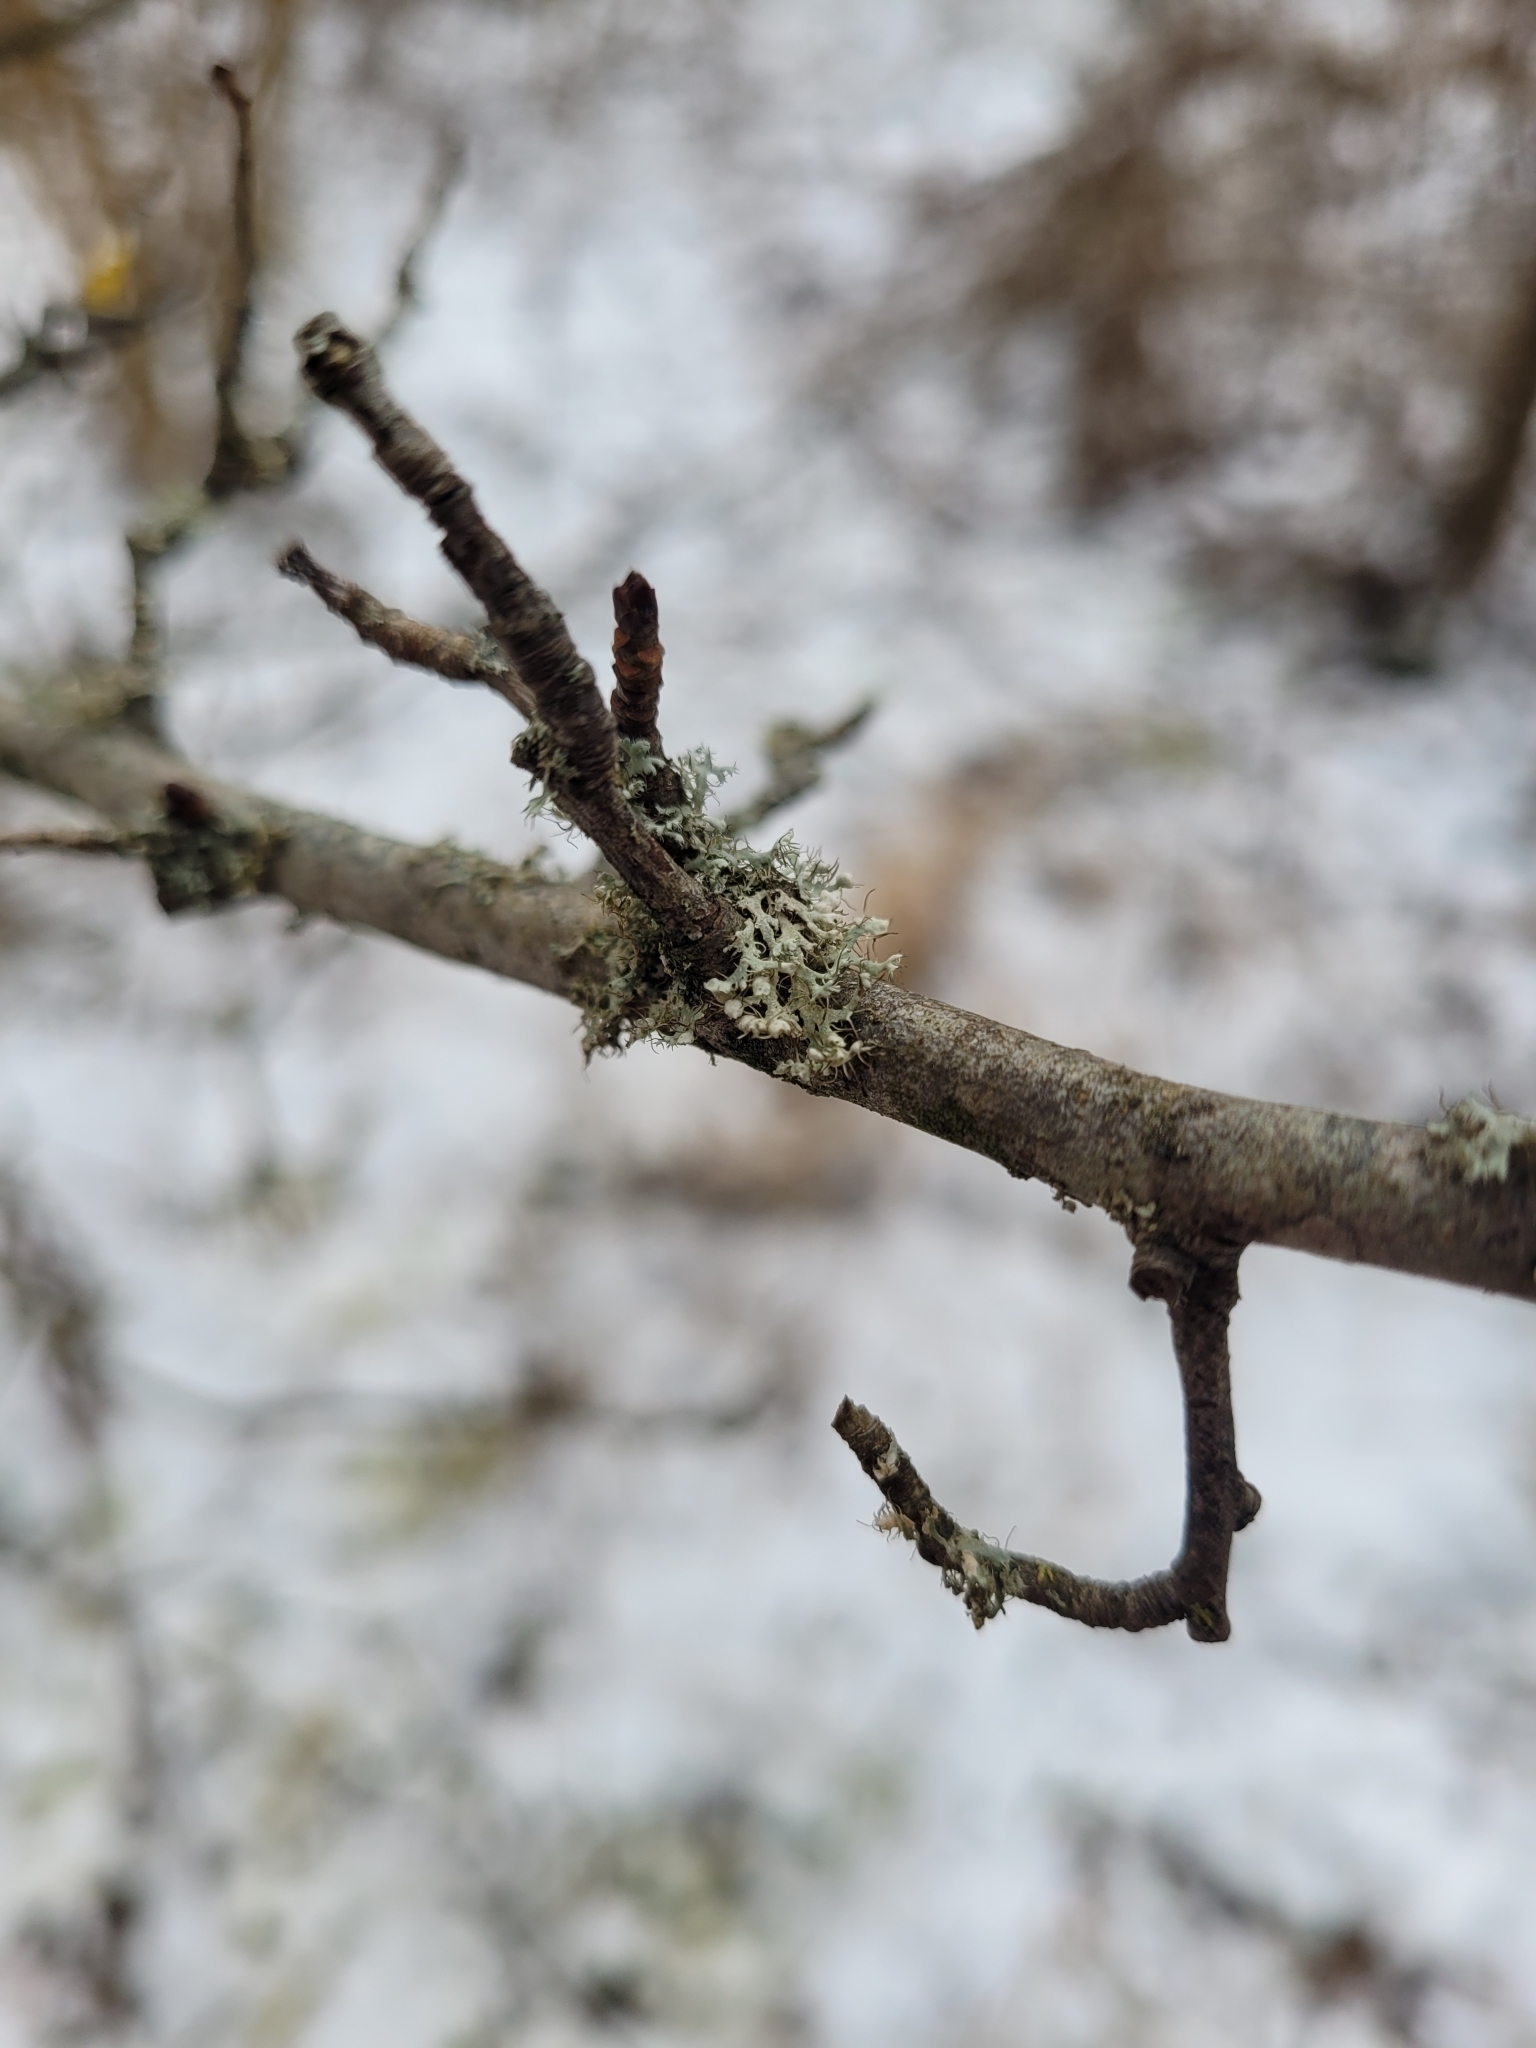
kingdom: Fungi
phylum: Ascomycota
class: Lecanoromycetes
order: Caliciales
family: Physciaceae
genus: Physcia
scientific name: Physcia adscendens
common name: Hooded rosette lichen
